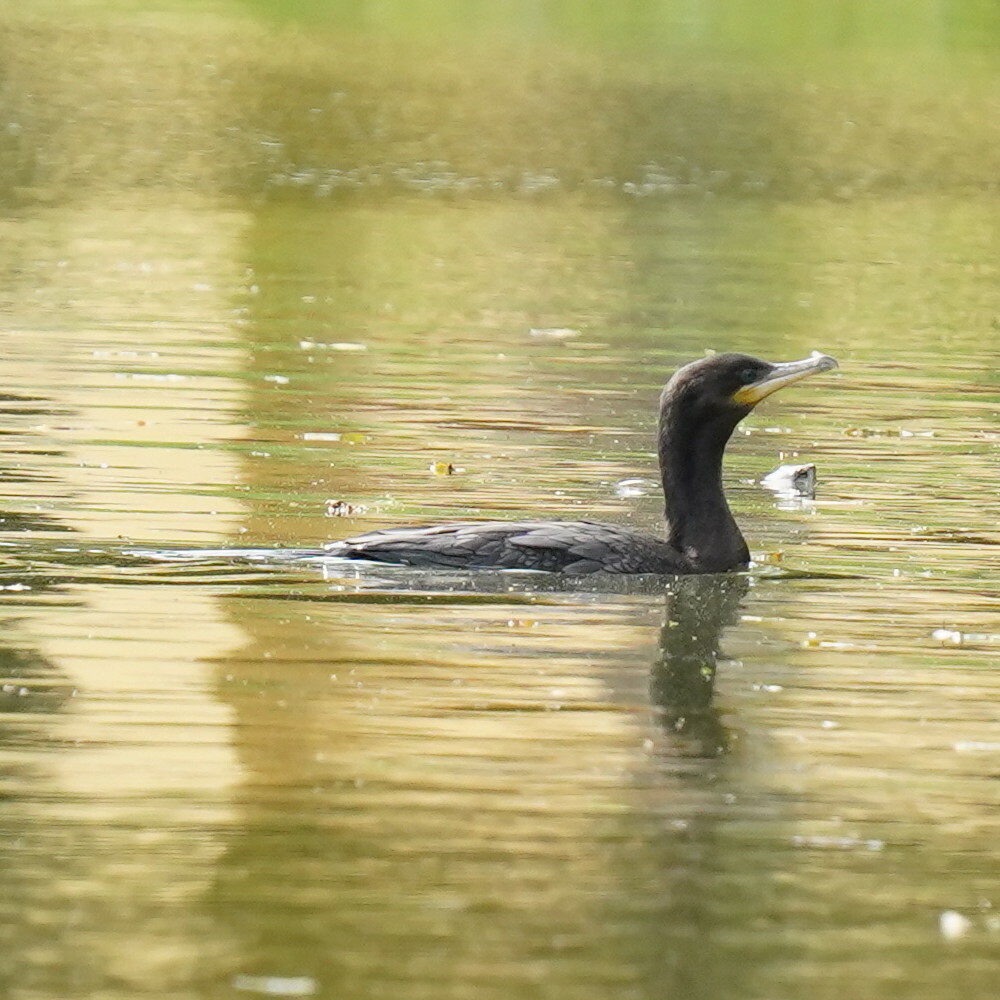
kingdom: Animalia
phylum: Chordata
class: Aves
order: Suliformes
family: Phalacrocoracidae
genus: Phalacrocorax
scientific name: Phalacrocorax brasilianus
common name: Neotropic cormorant
